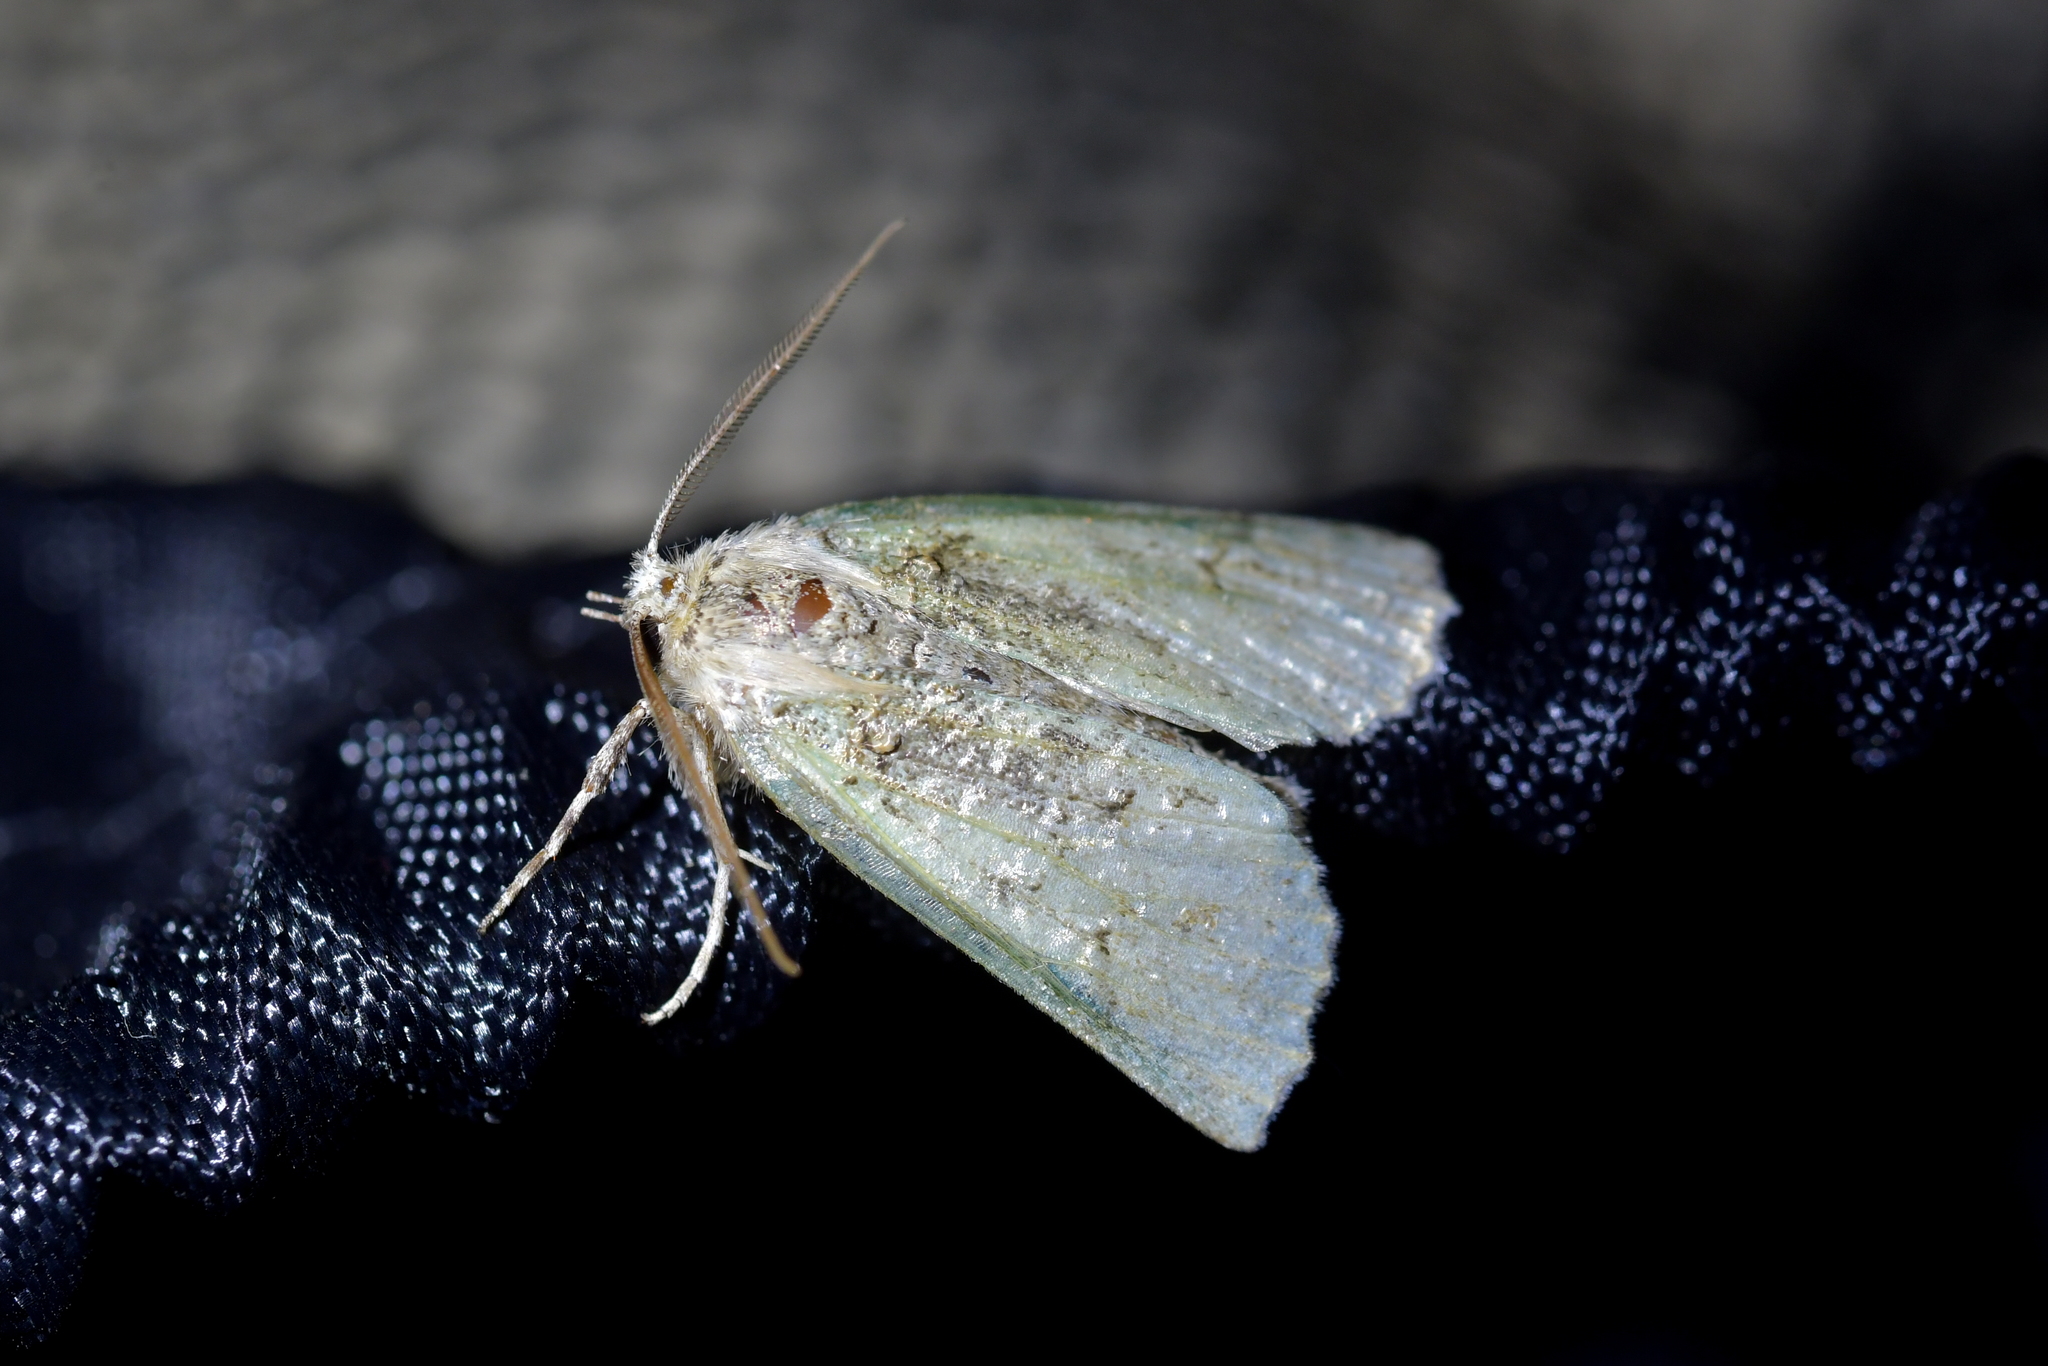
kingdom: Animalia
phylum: Arthropoda
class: Insecta
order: Lepidoptera
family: Geometridae
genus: Declana
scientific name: Declana floccosa
